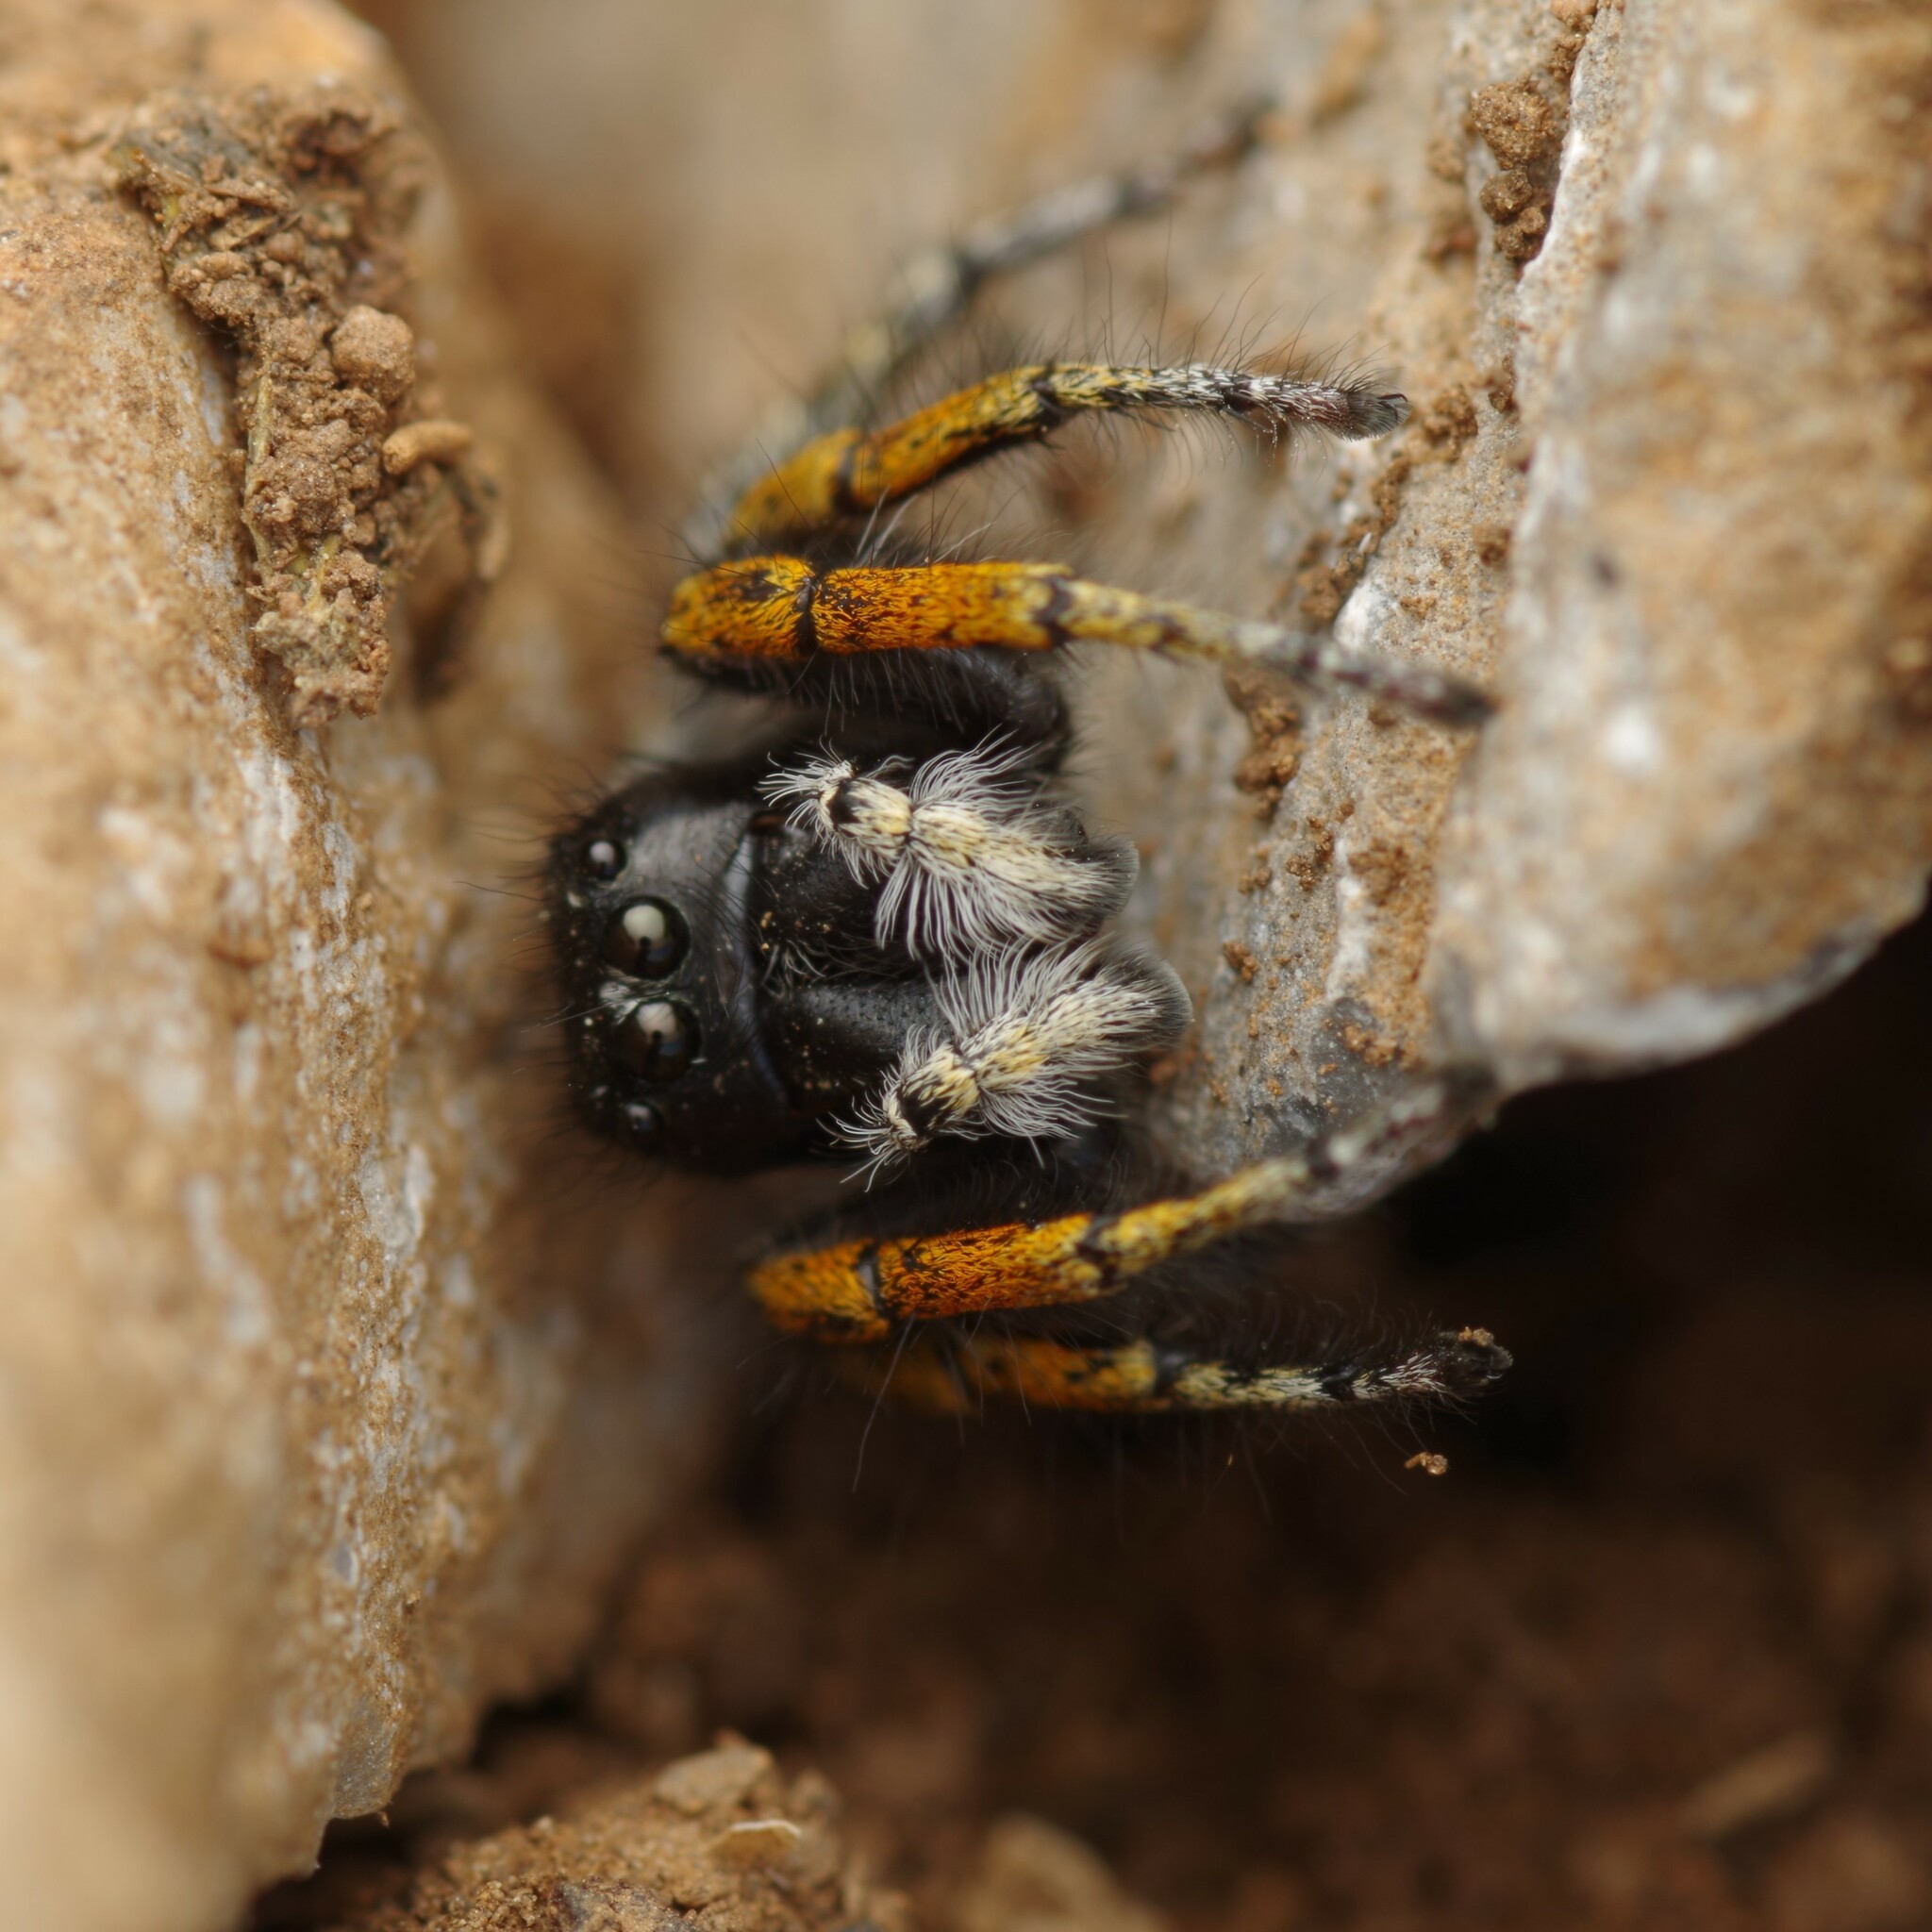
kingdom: Animalia
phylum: Arthropoda
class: Arachnida
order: Araneae
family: Salticidae
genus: Philaeus
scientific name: Philaeus chrysops
